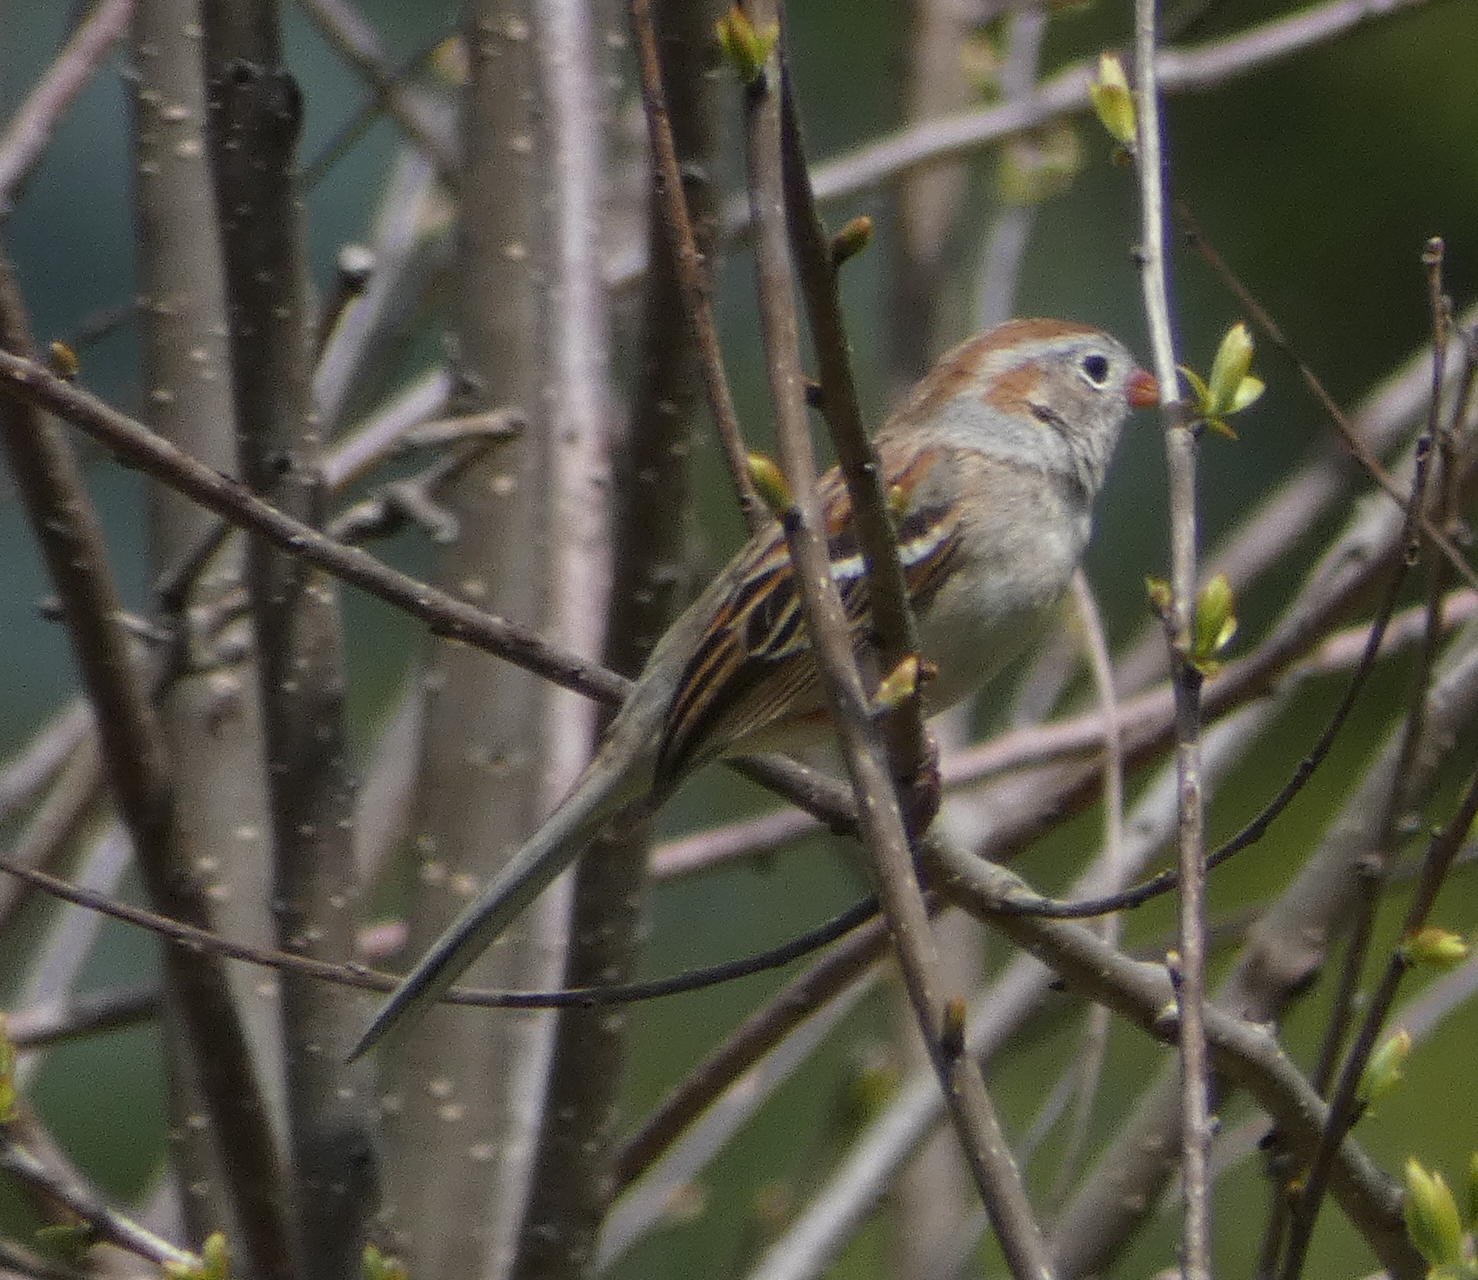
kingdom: Animalia
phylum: Chordata
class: Aves
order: Passeriformes
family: Passerellidae
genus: Spizella
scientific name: Spizella pusilla
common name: Field sparrow
